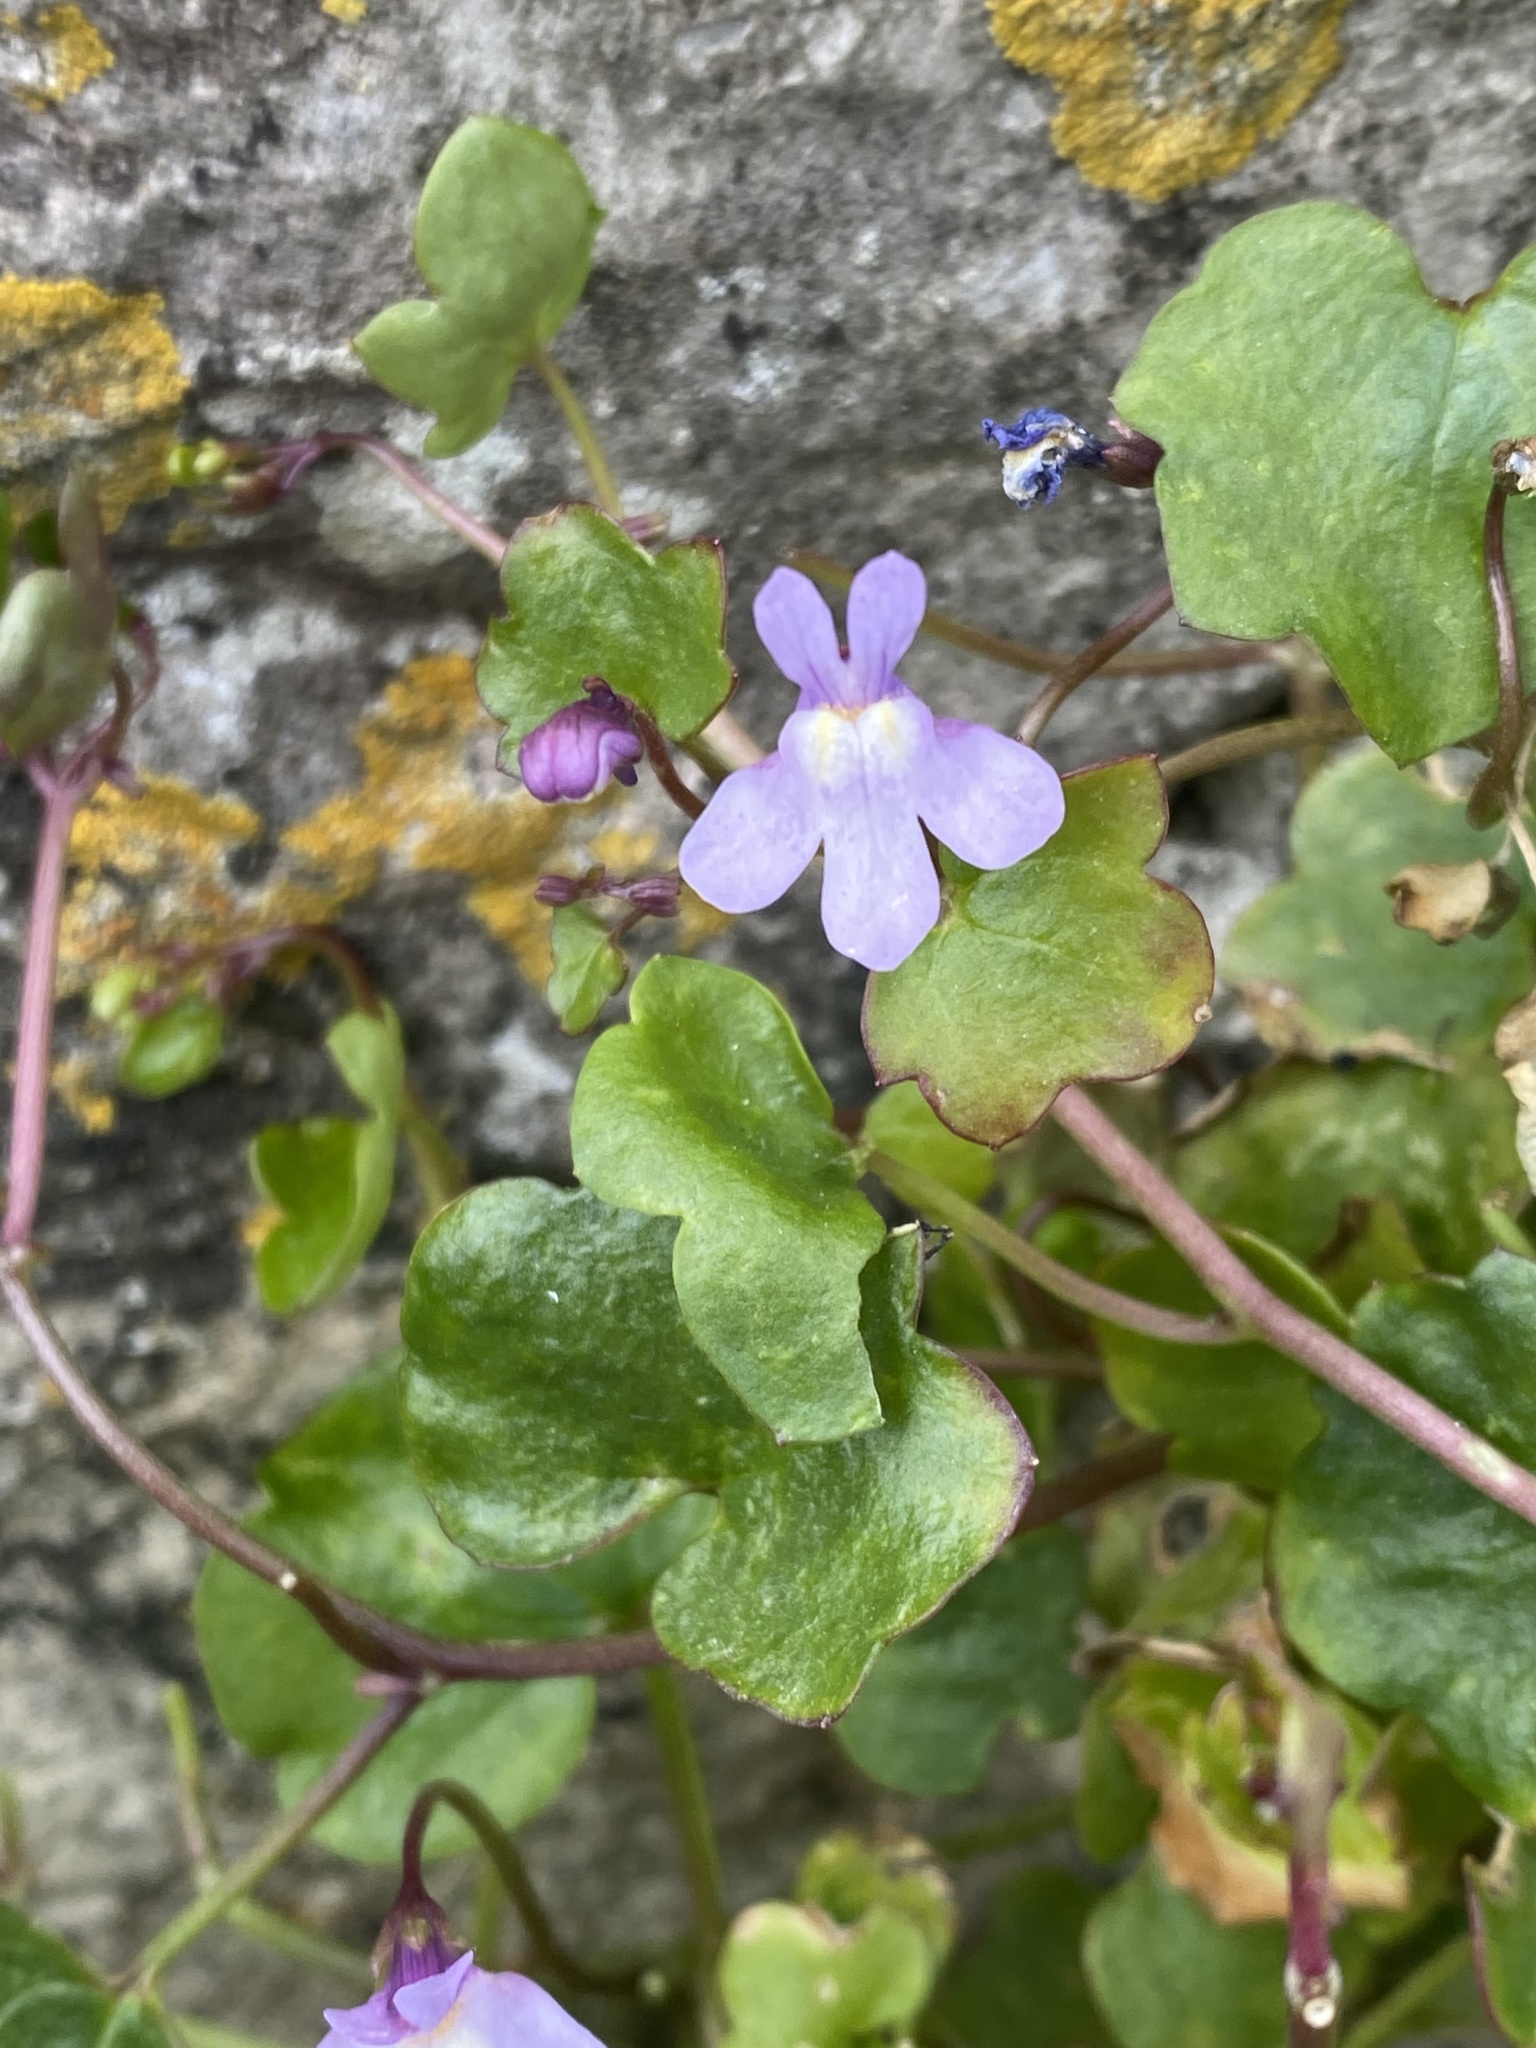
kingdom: Plantae
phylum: Tracheophyta
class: Magnoliopsida
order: Lamiales
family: Plantaginaceae
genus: Cymbalaria
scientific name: Cymbalaria muralis
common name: Ivy-leaved toadflax
